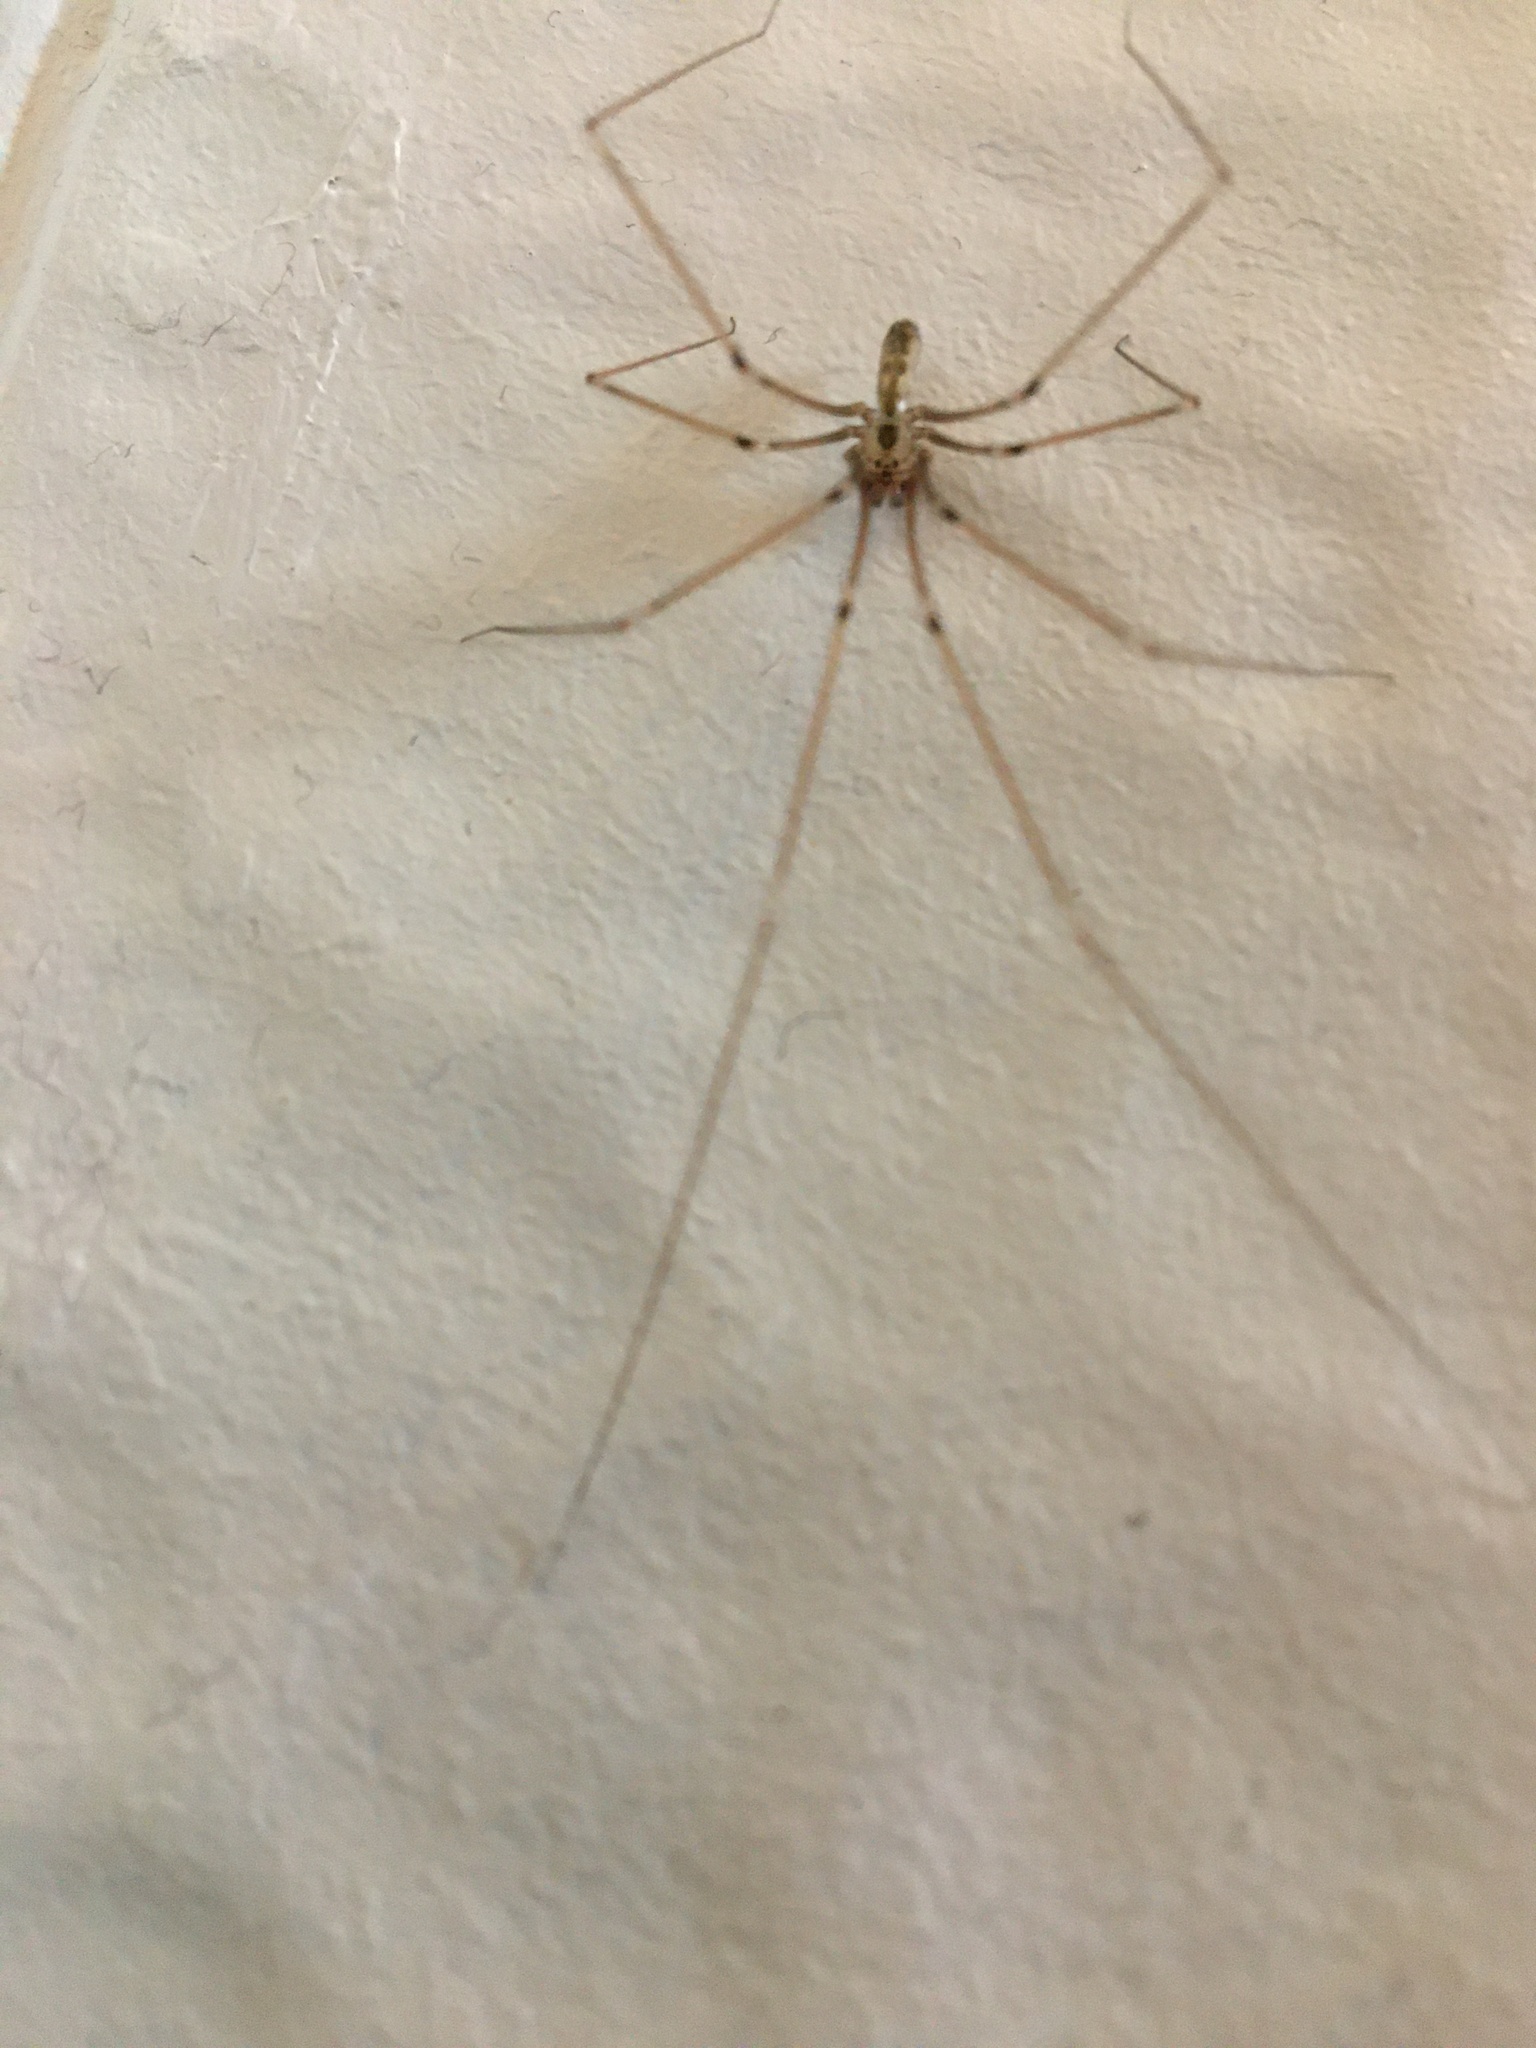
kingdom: Animalia
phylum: Arthropoda
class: Arachnida
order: Araneae
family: Pholcidae
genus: Pholcus
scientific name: Pholcus phalangioides
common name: Longbodied cellar spider
